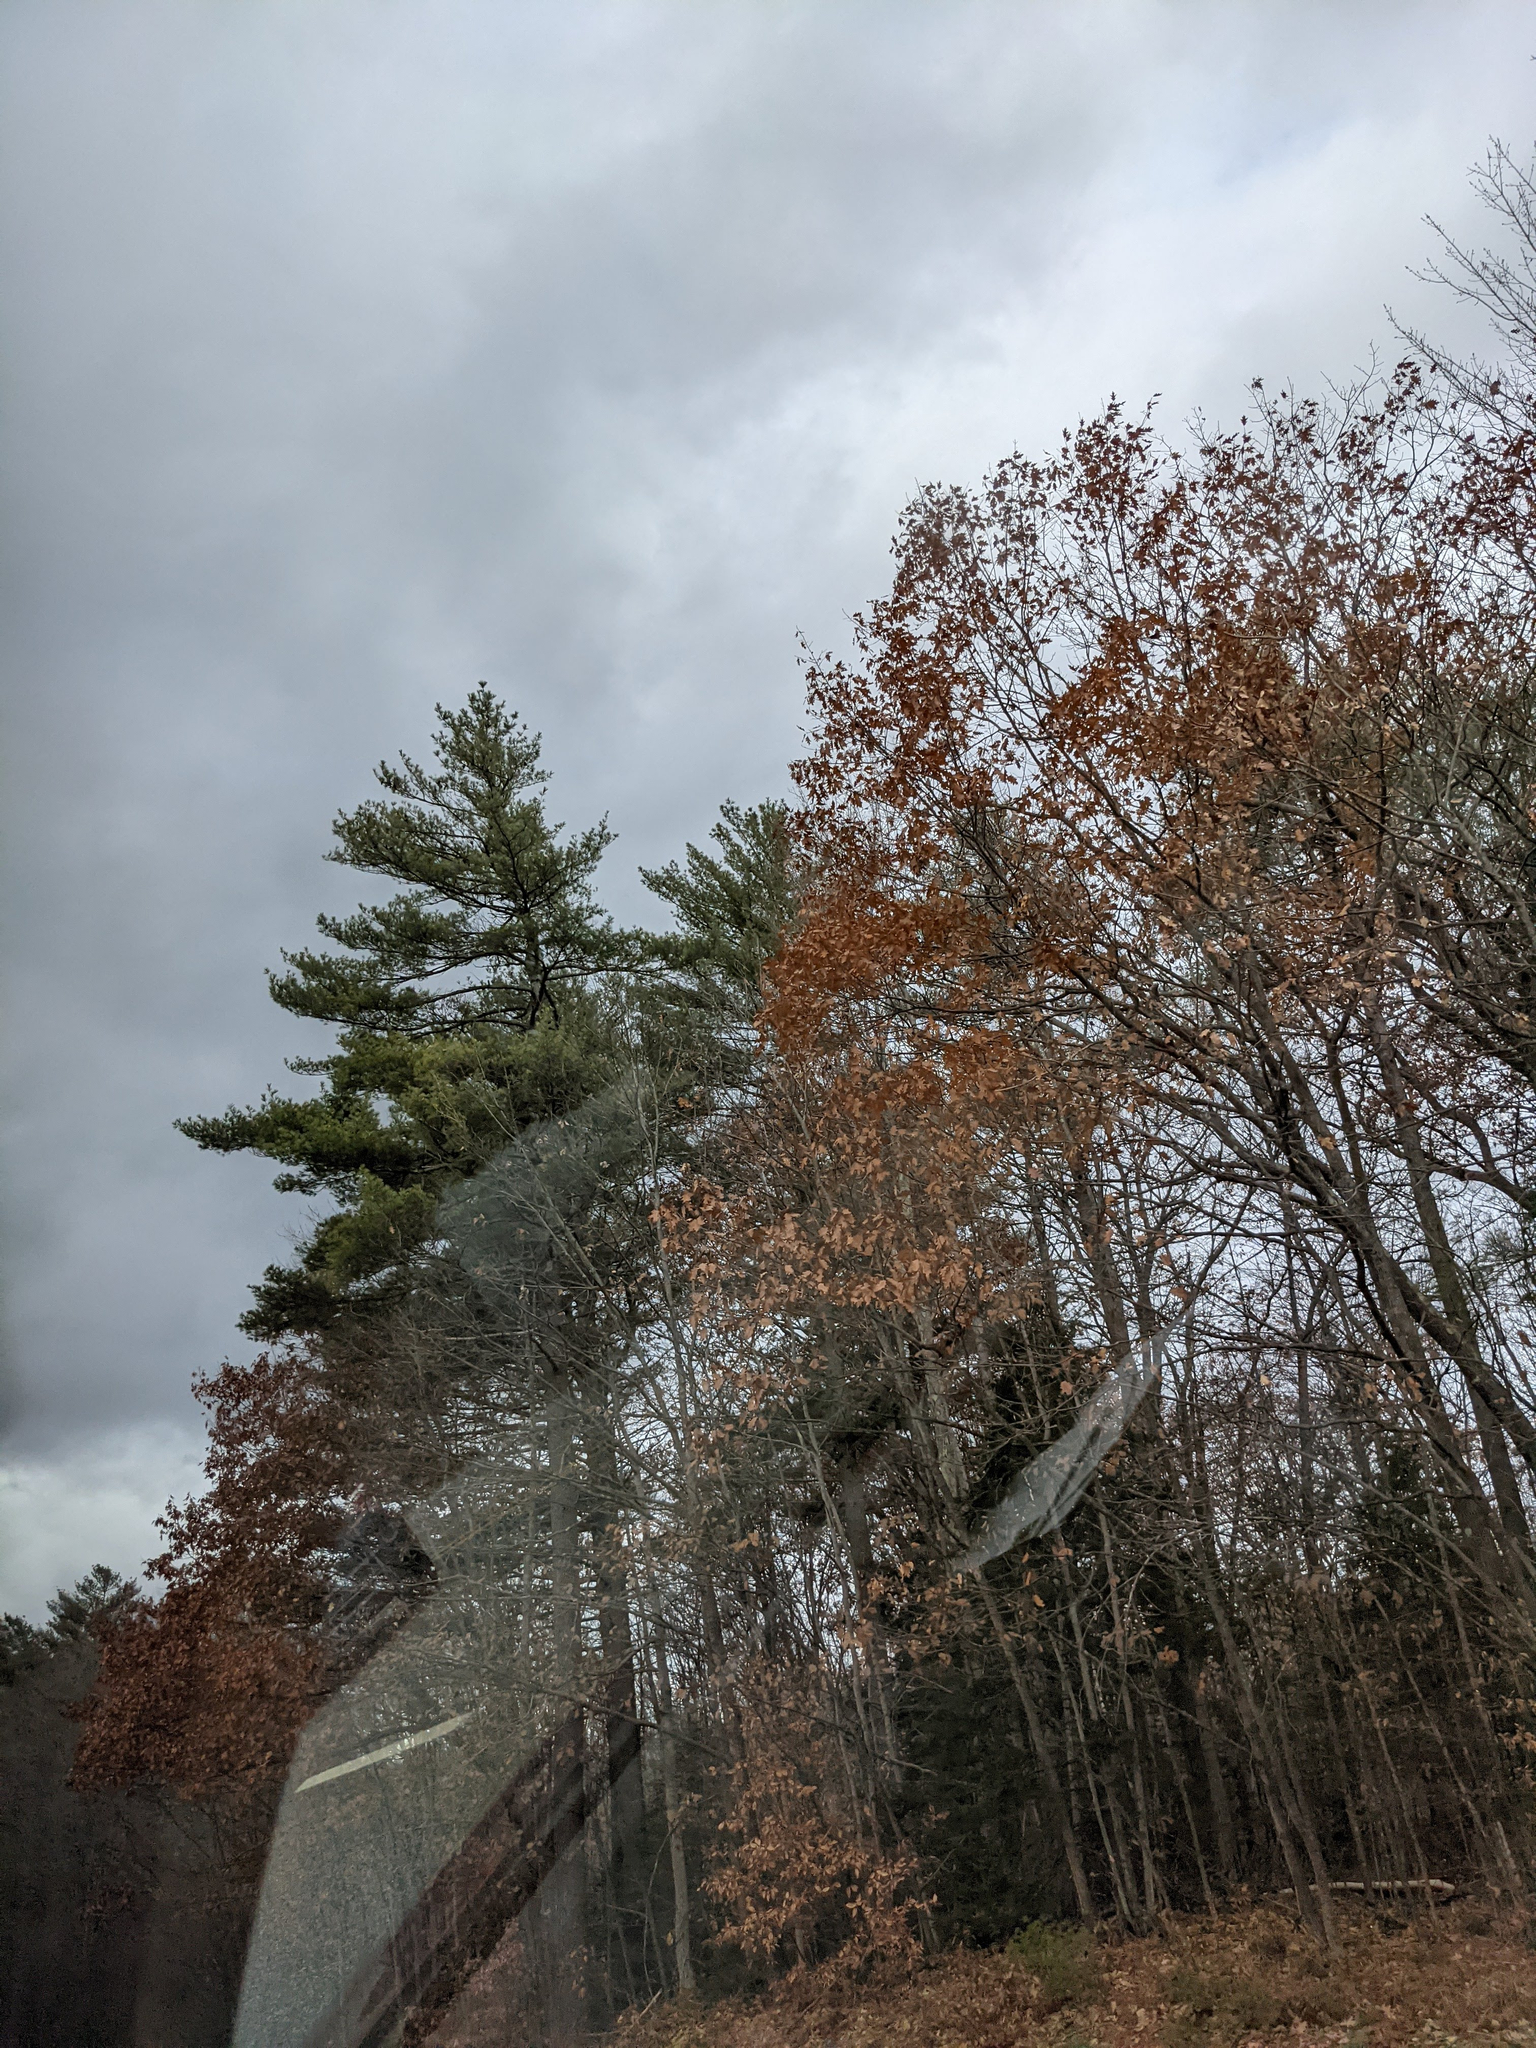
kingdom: Plantae
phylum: Tracheophyta
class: Pinopsida
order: Pinales
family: Pinaceae
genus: Pinus
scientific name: Pinus strobus
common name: Weymouth pine
